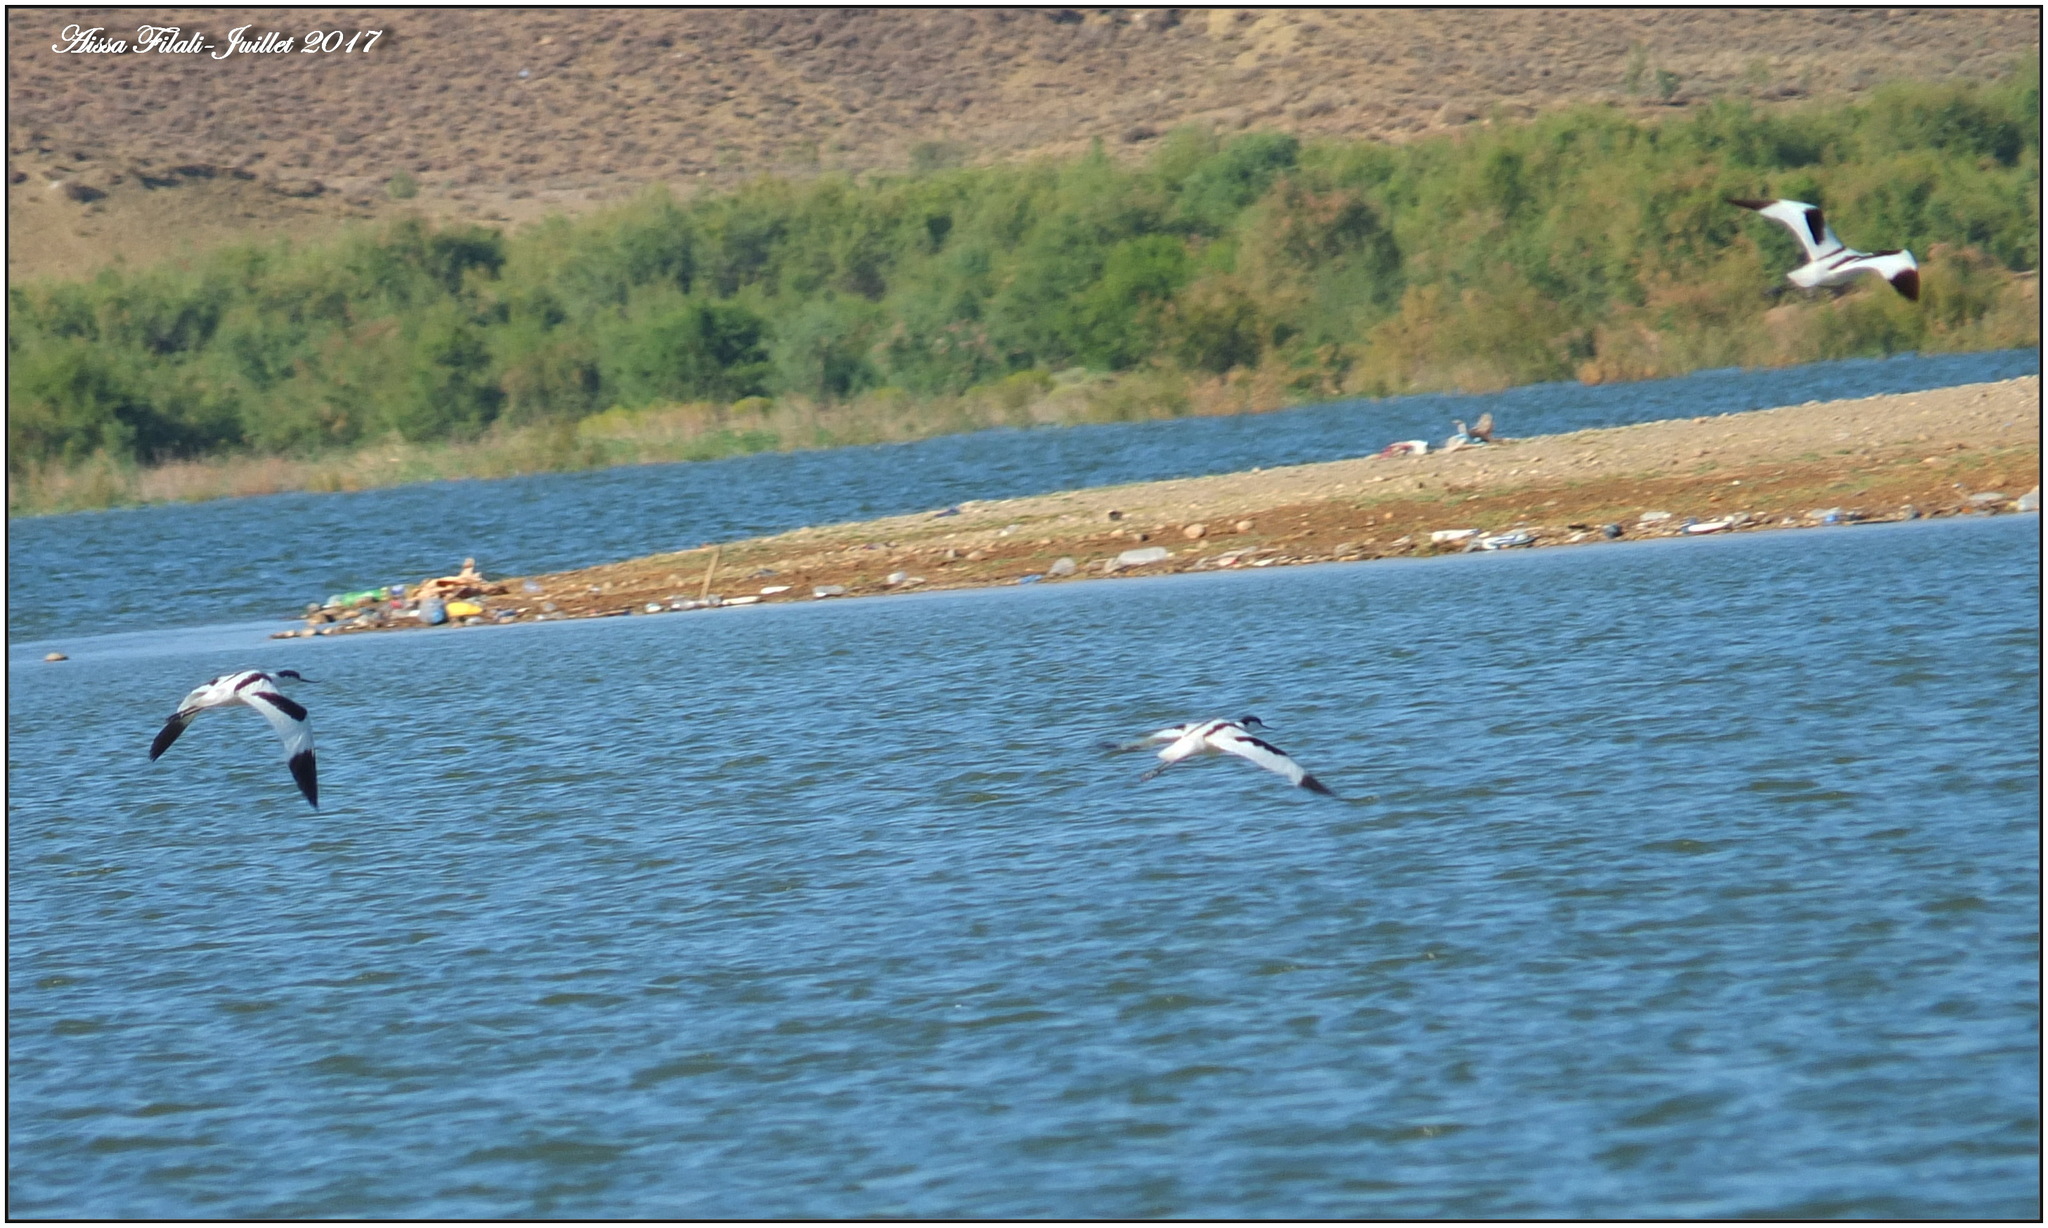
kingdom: Animalia
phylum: Chordata
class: Aves
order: Charadriiformes
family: Recurvirostridae
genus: Recurvirostra
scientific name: Recurvirostra avosetta
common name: Pied avocet
